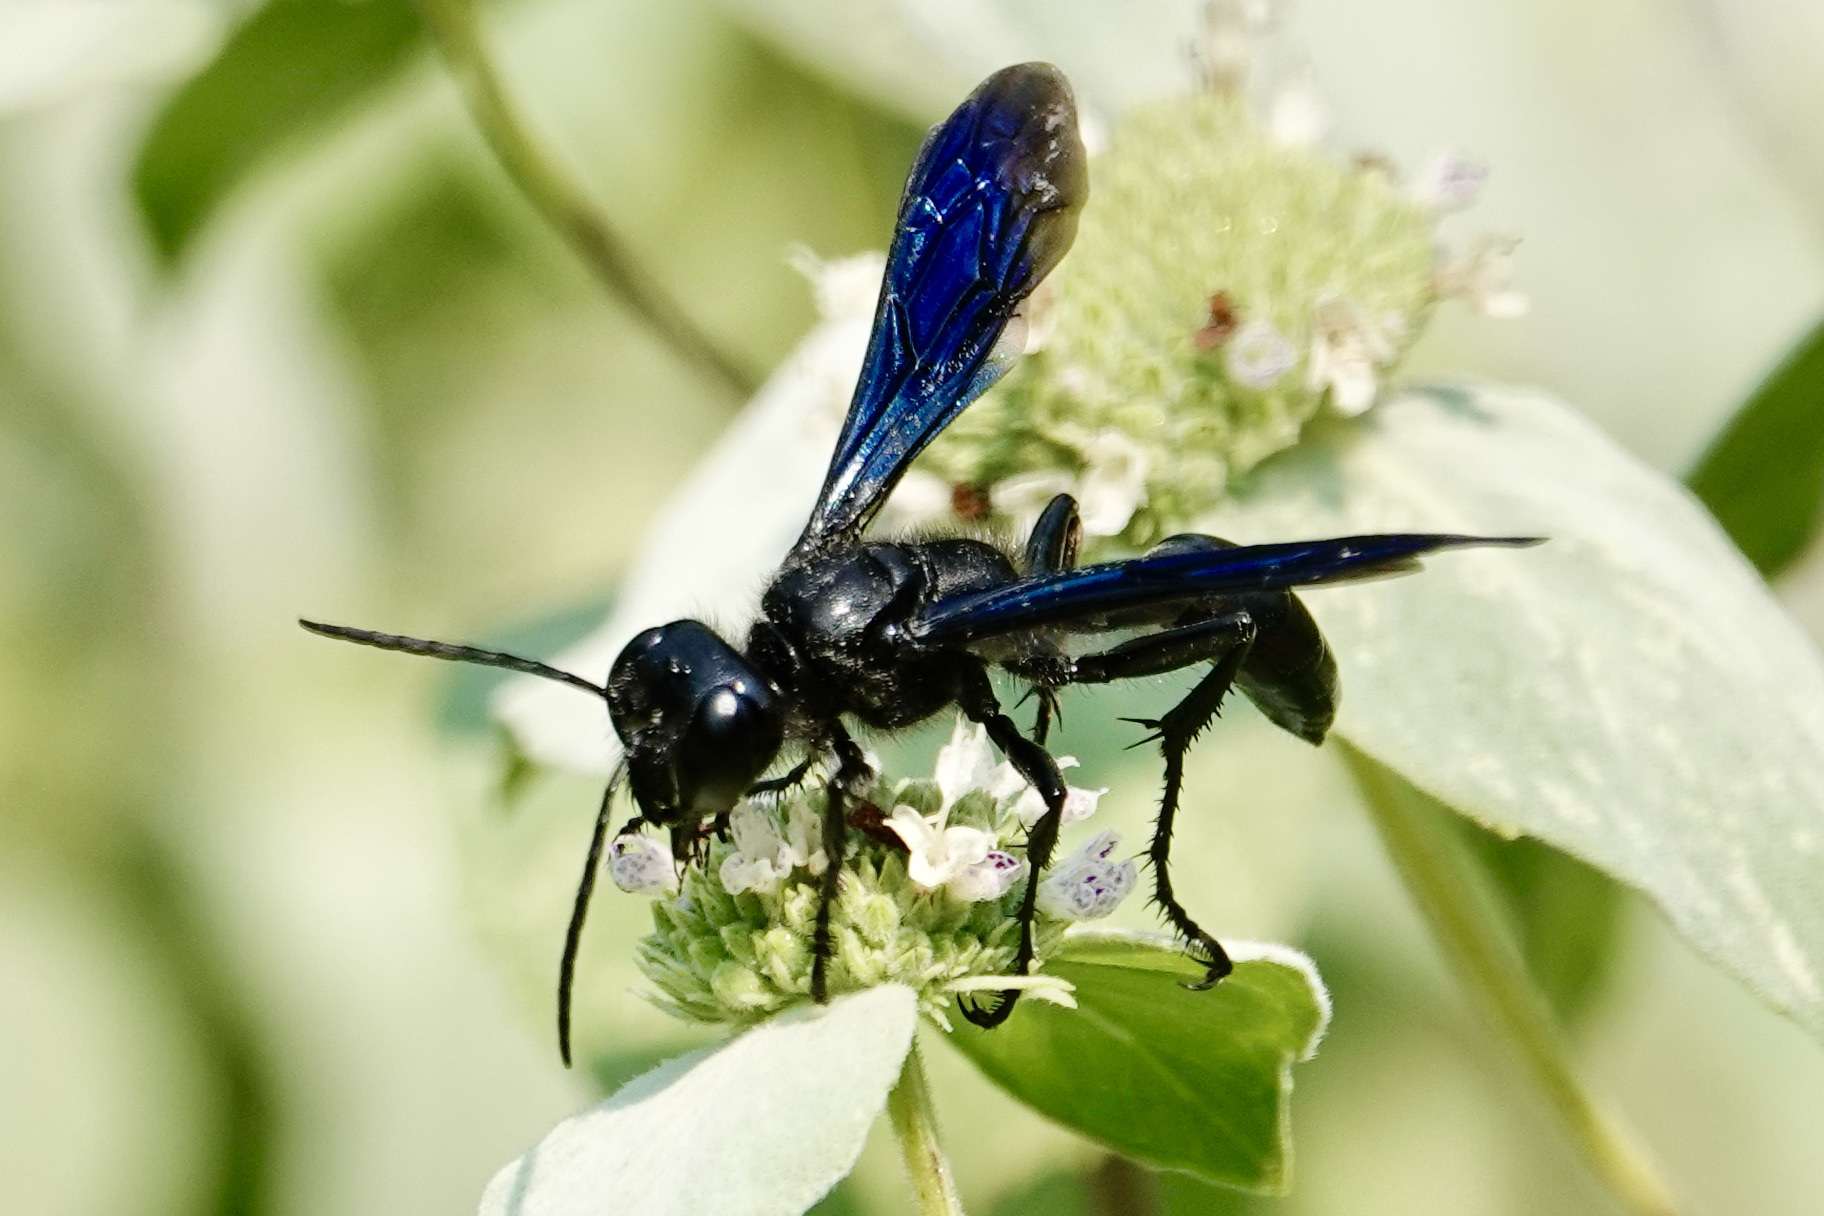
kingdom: Animalia
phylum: Arthropoda
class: Insecta
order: Hymenoptera
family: Sphecidae
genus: Isodontia
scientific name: Isodontia philadelphica
